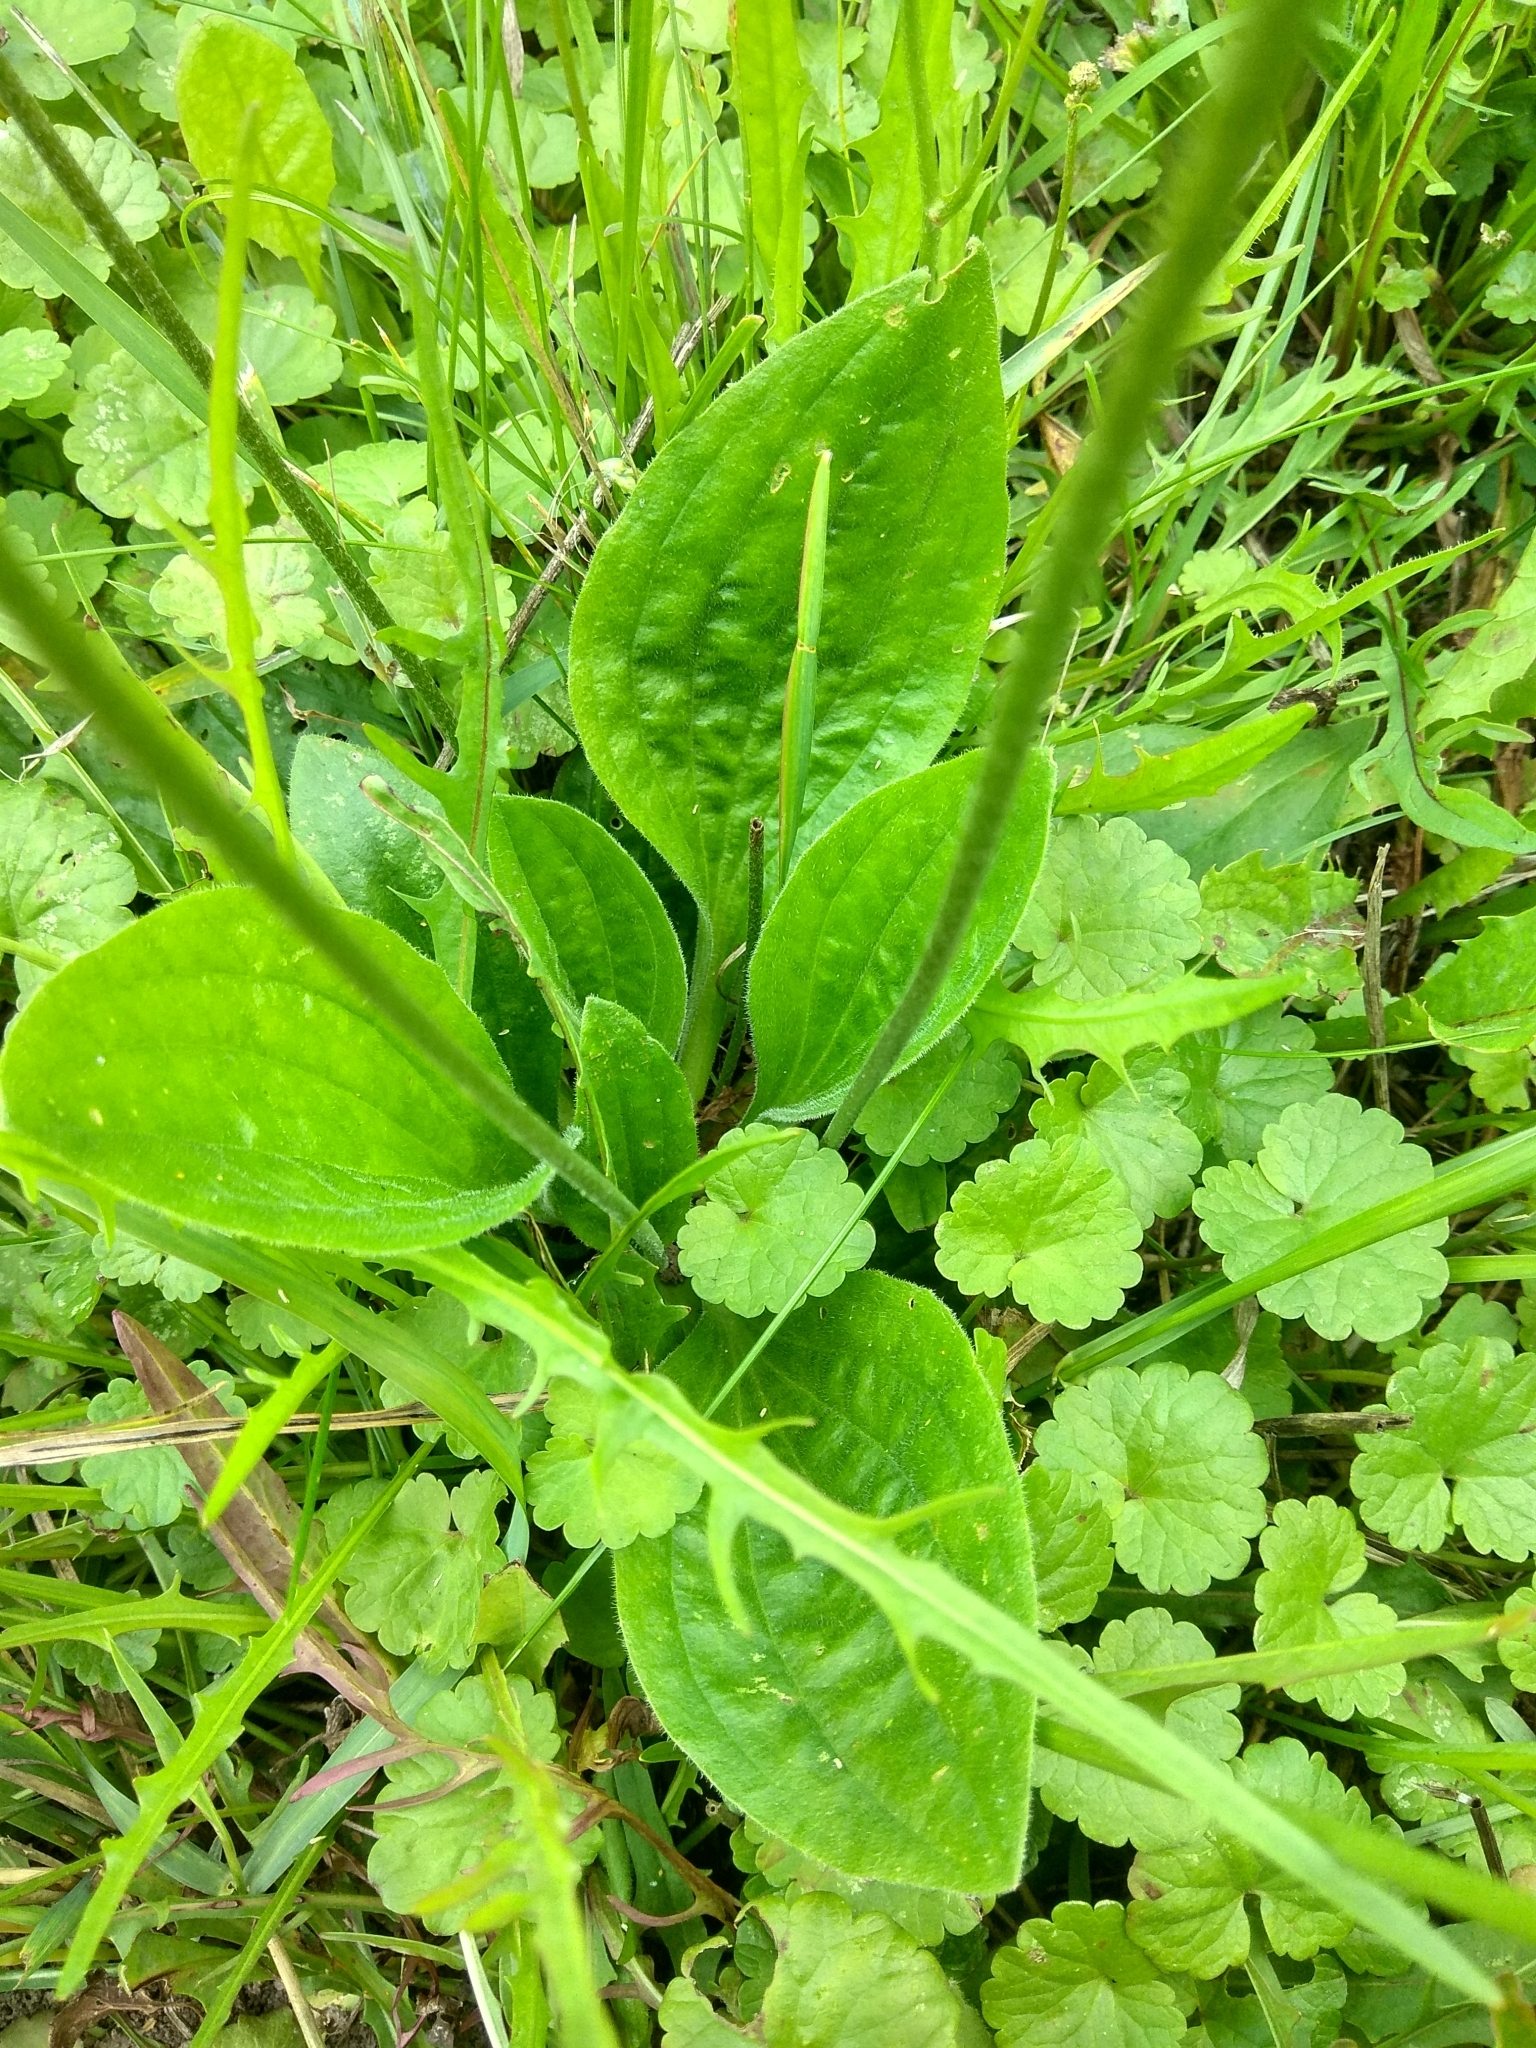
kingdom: Plantae
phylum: Tracheophyta
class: Magnoliopsida
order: Lamiales
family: Plantaginaceae
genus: Plantago
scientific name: Plantago major
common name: Common plantain
